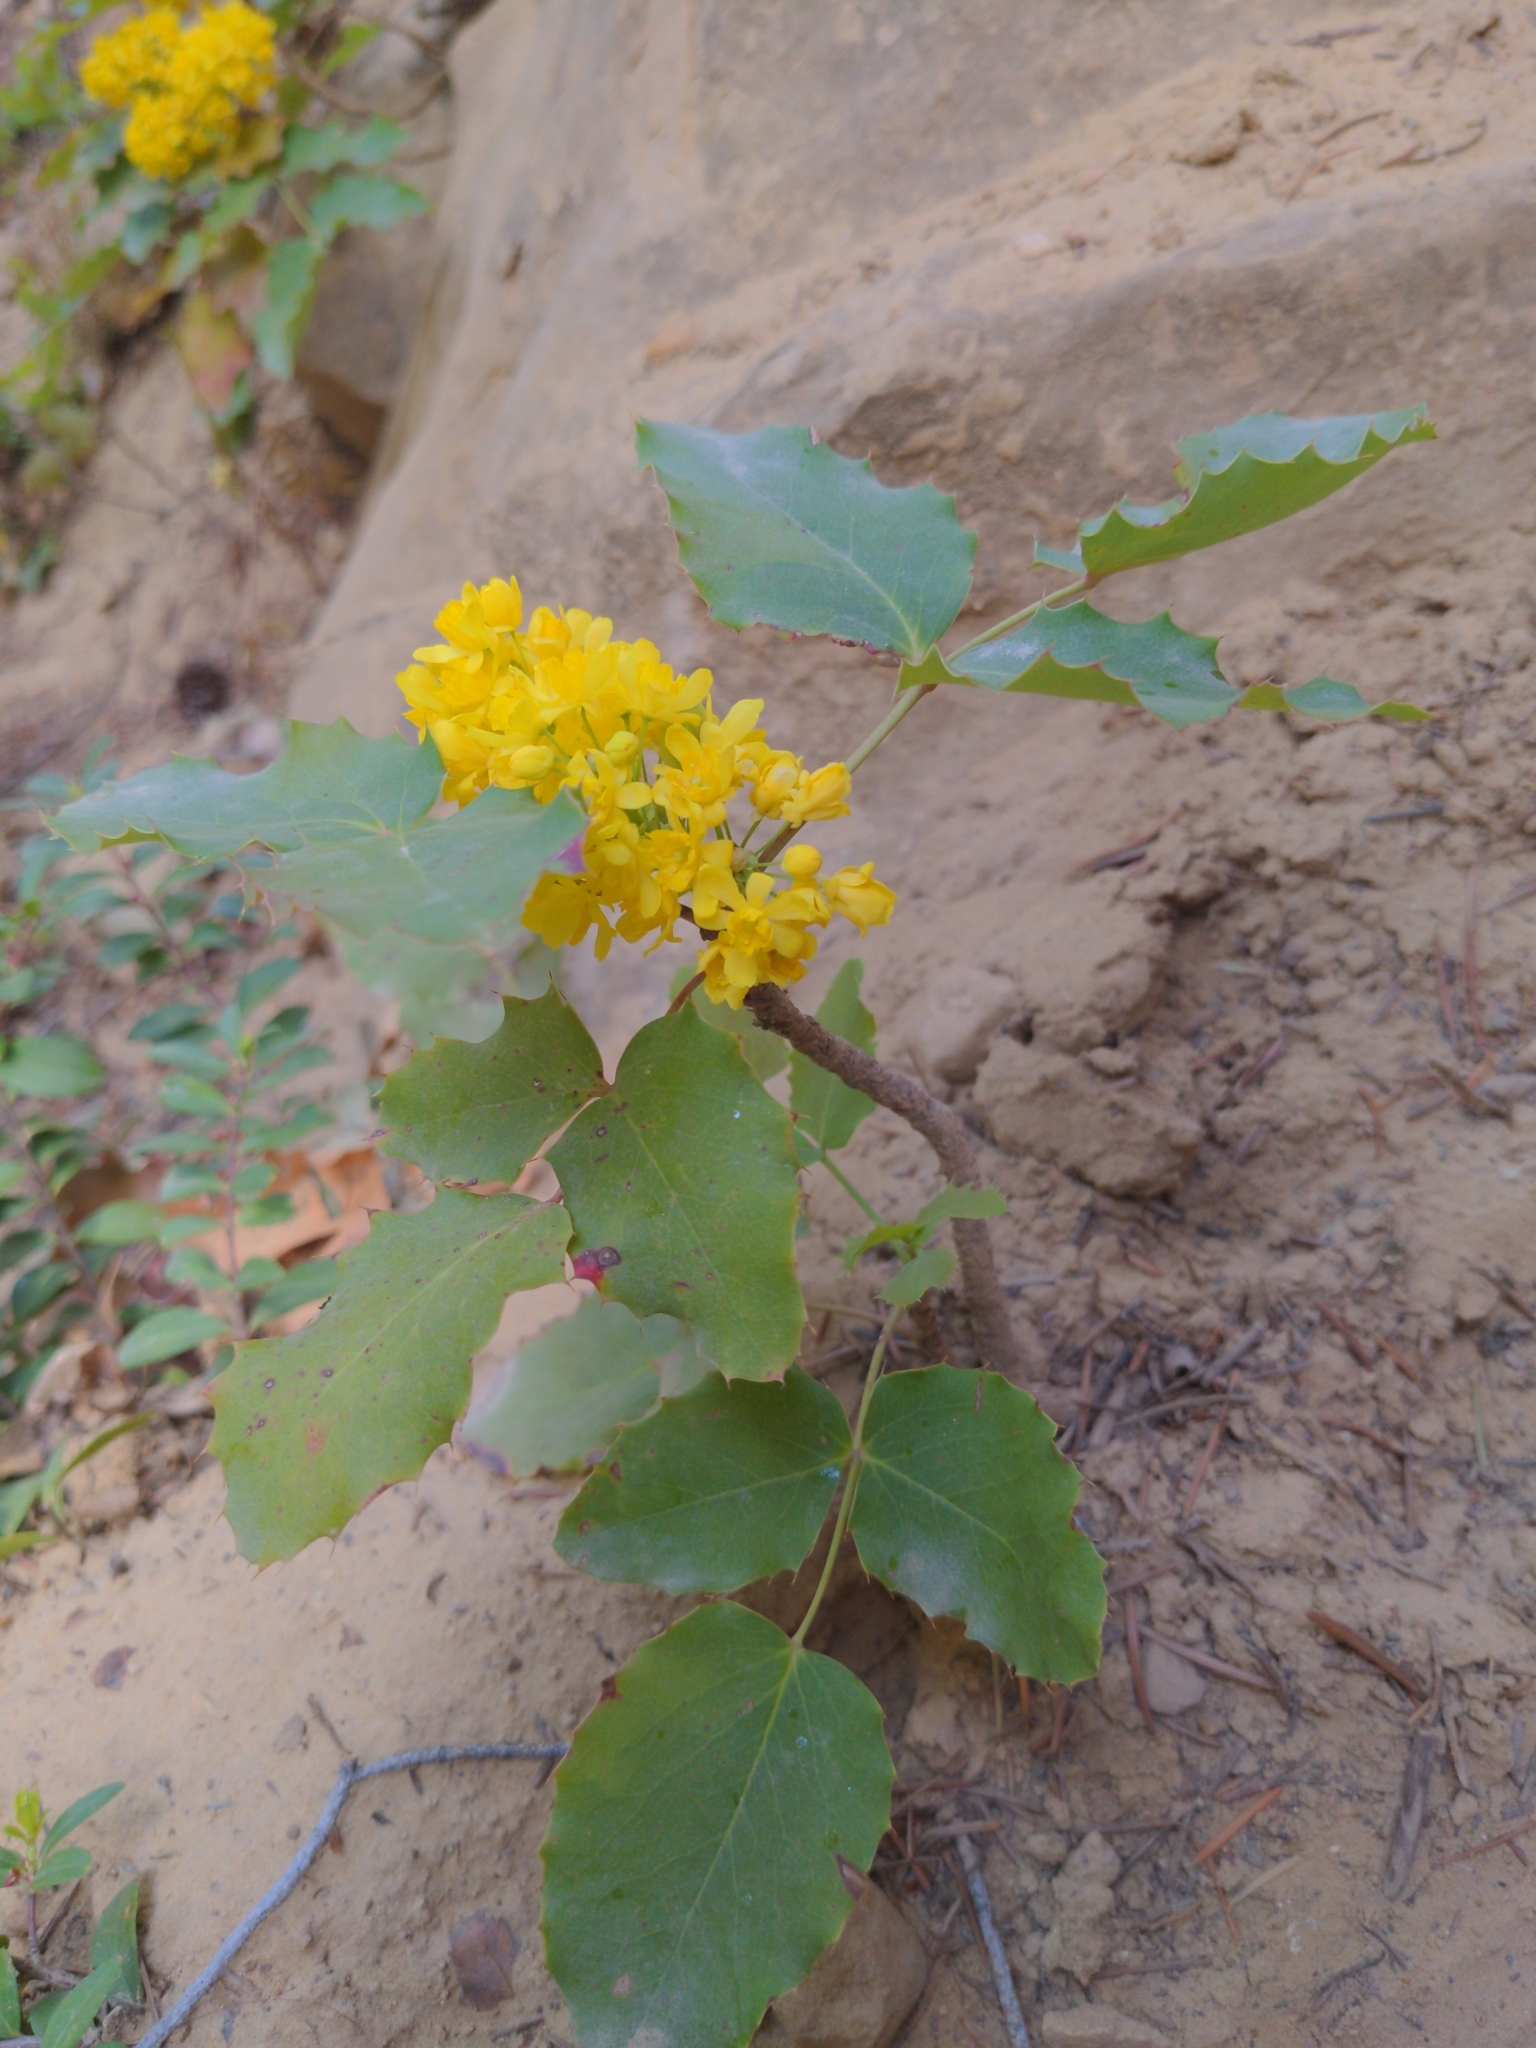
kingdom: Plantae
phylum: Tracheophyta
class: Magnoliopsida
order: Ranunculales
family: Berberidaceae
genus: Mahonia
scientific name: Mahonia repens
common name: Creeping oregon-grape
